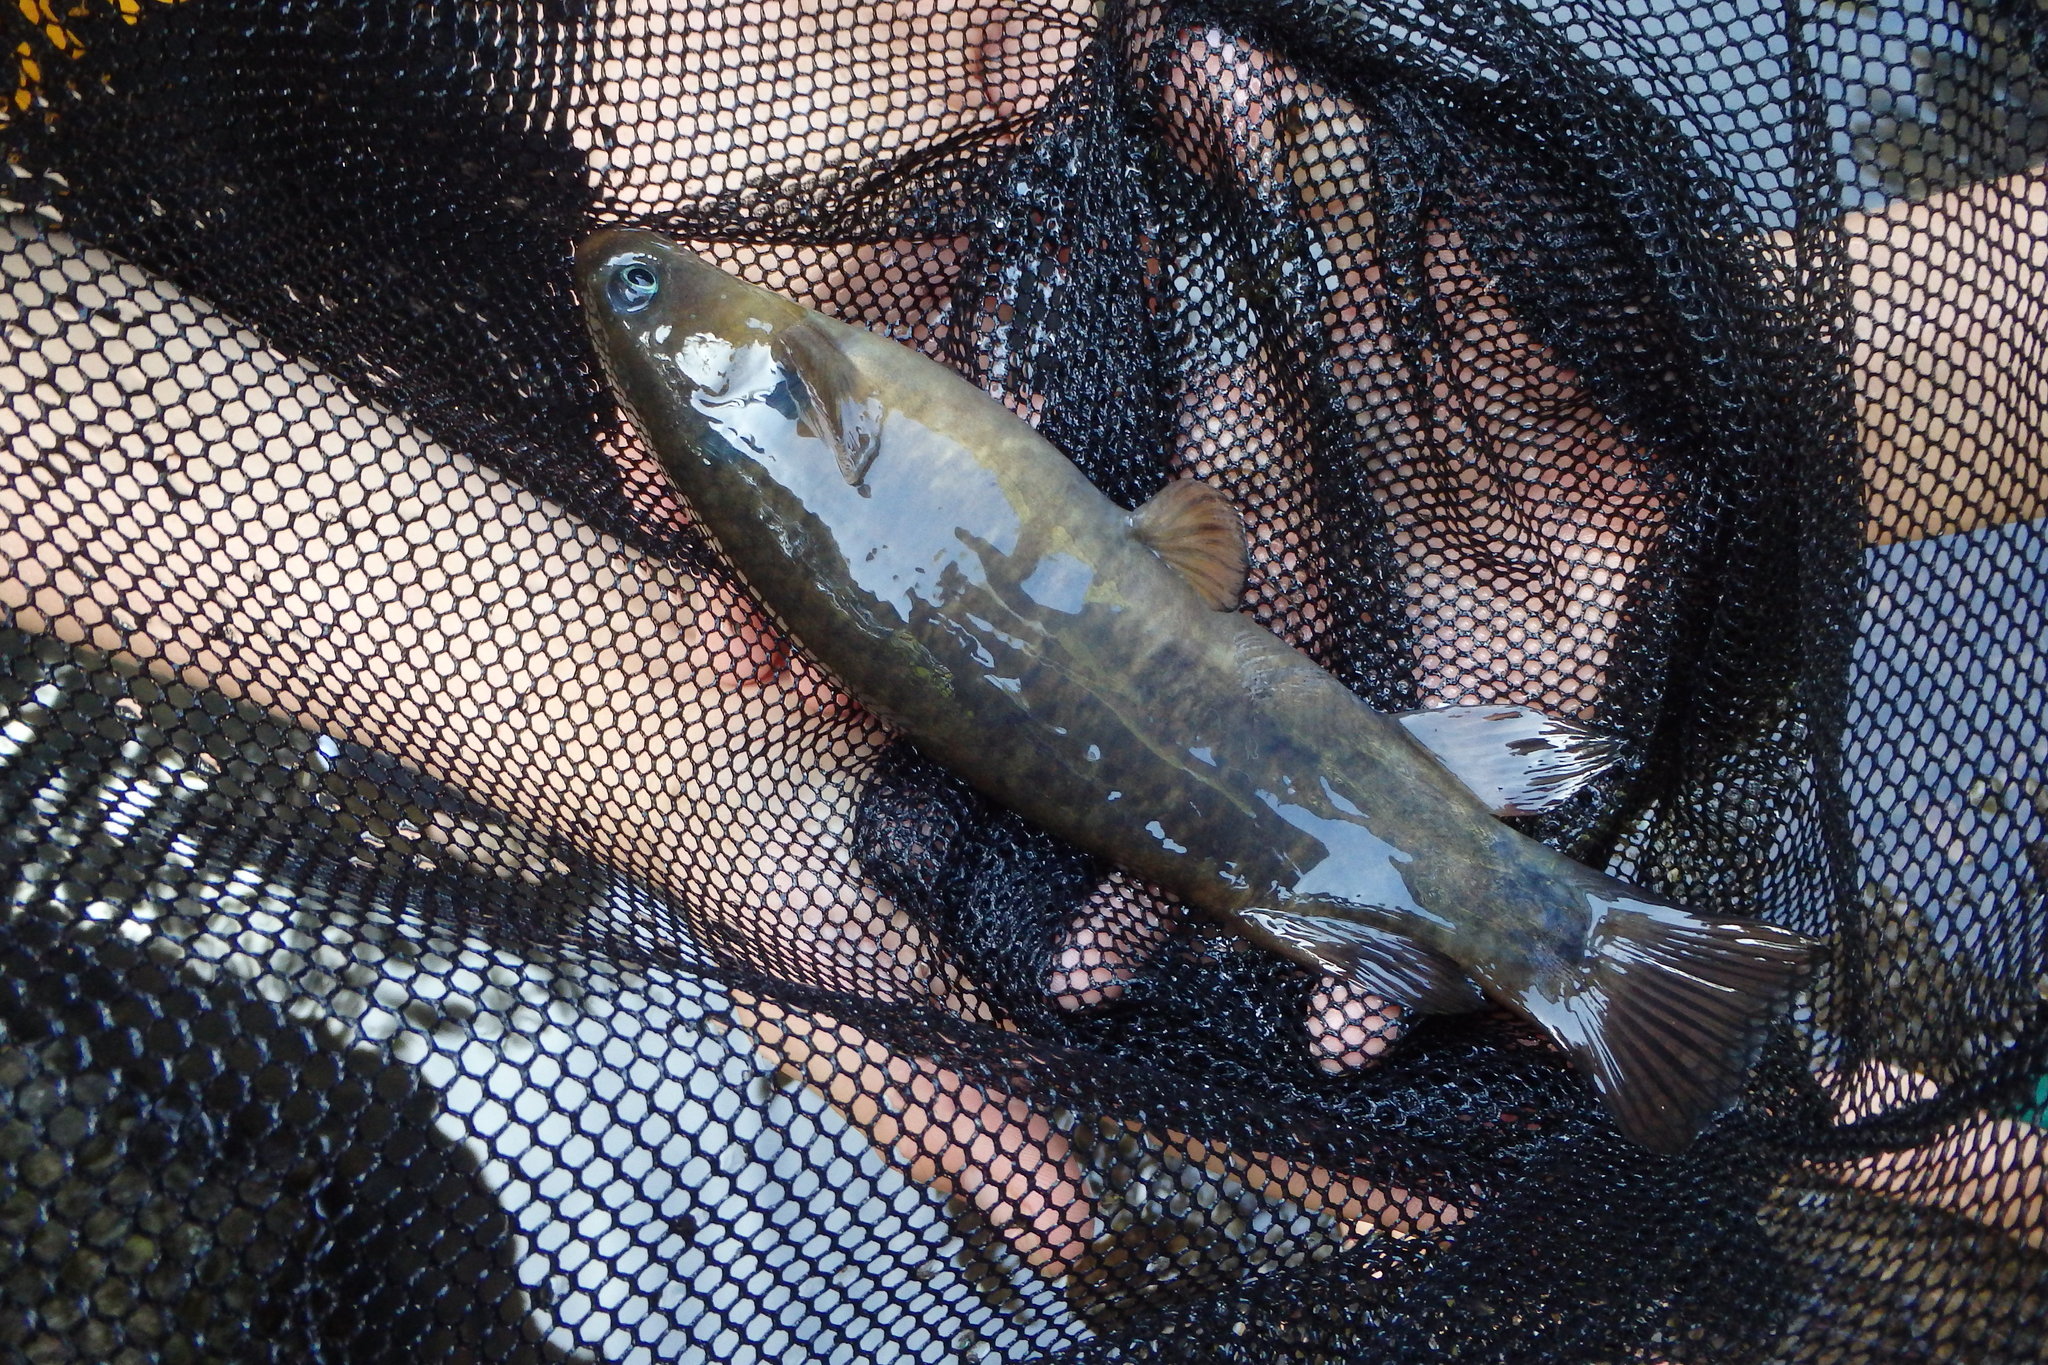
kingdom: Animalia
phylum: Chordata
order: Osmeriformes
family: Galaxiidae
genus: Galaxias
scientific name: Galaxias postvectis
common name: Shortjaw kokopu
